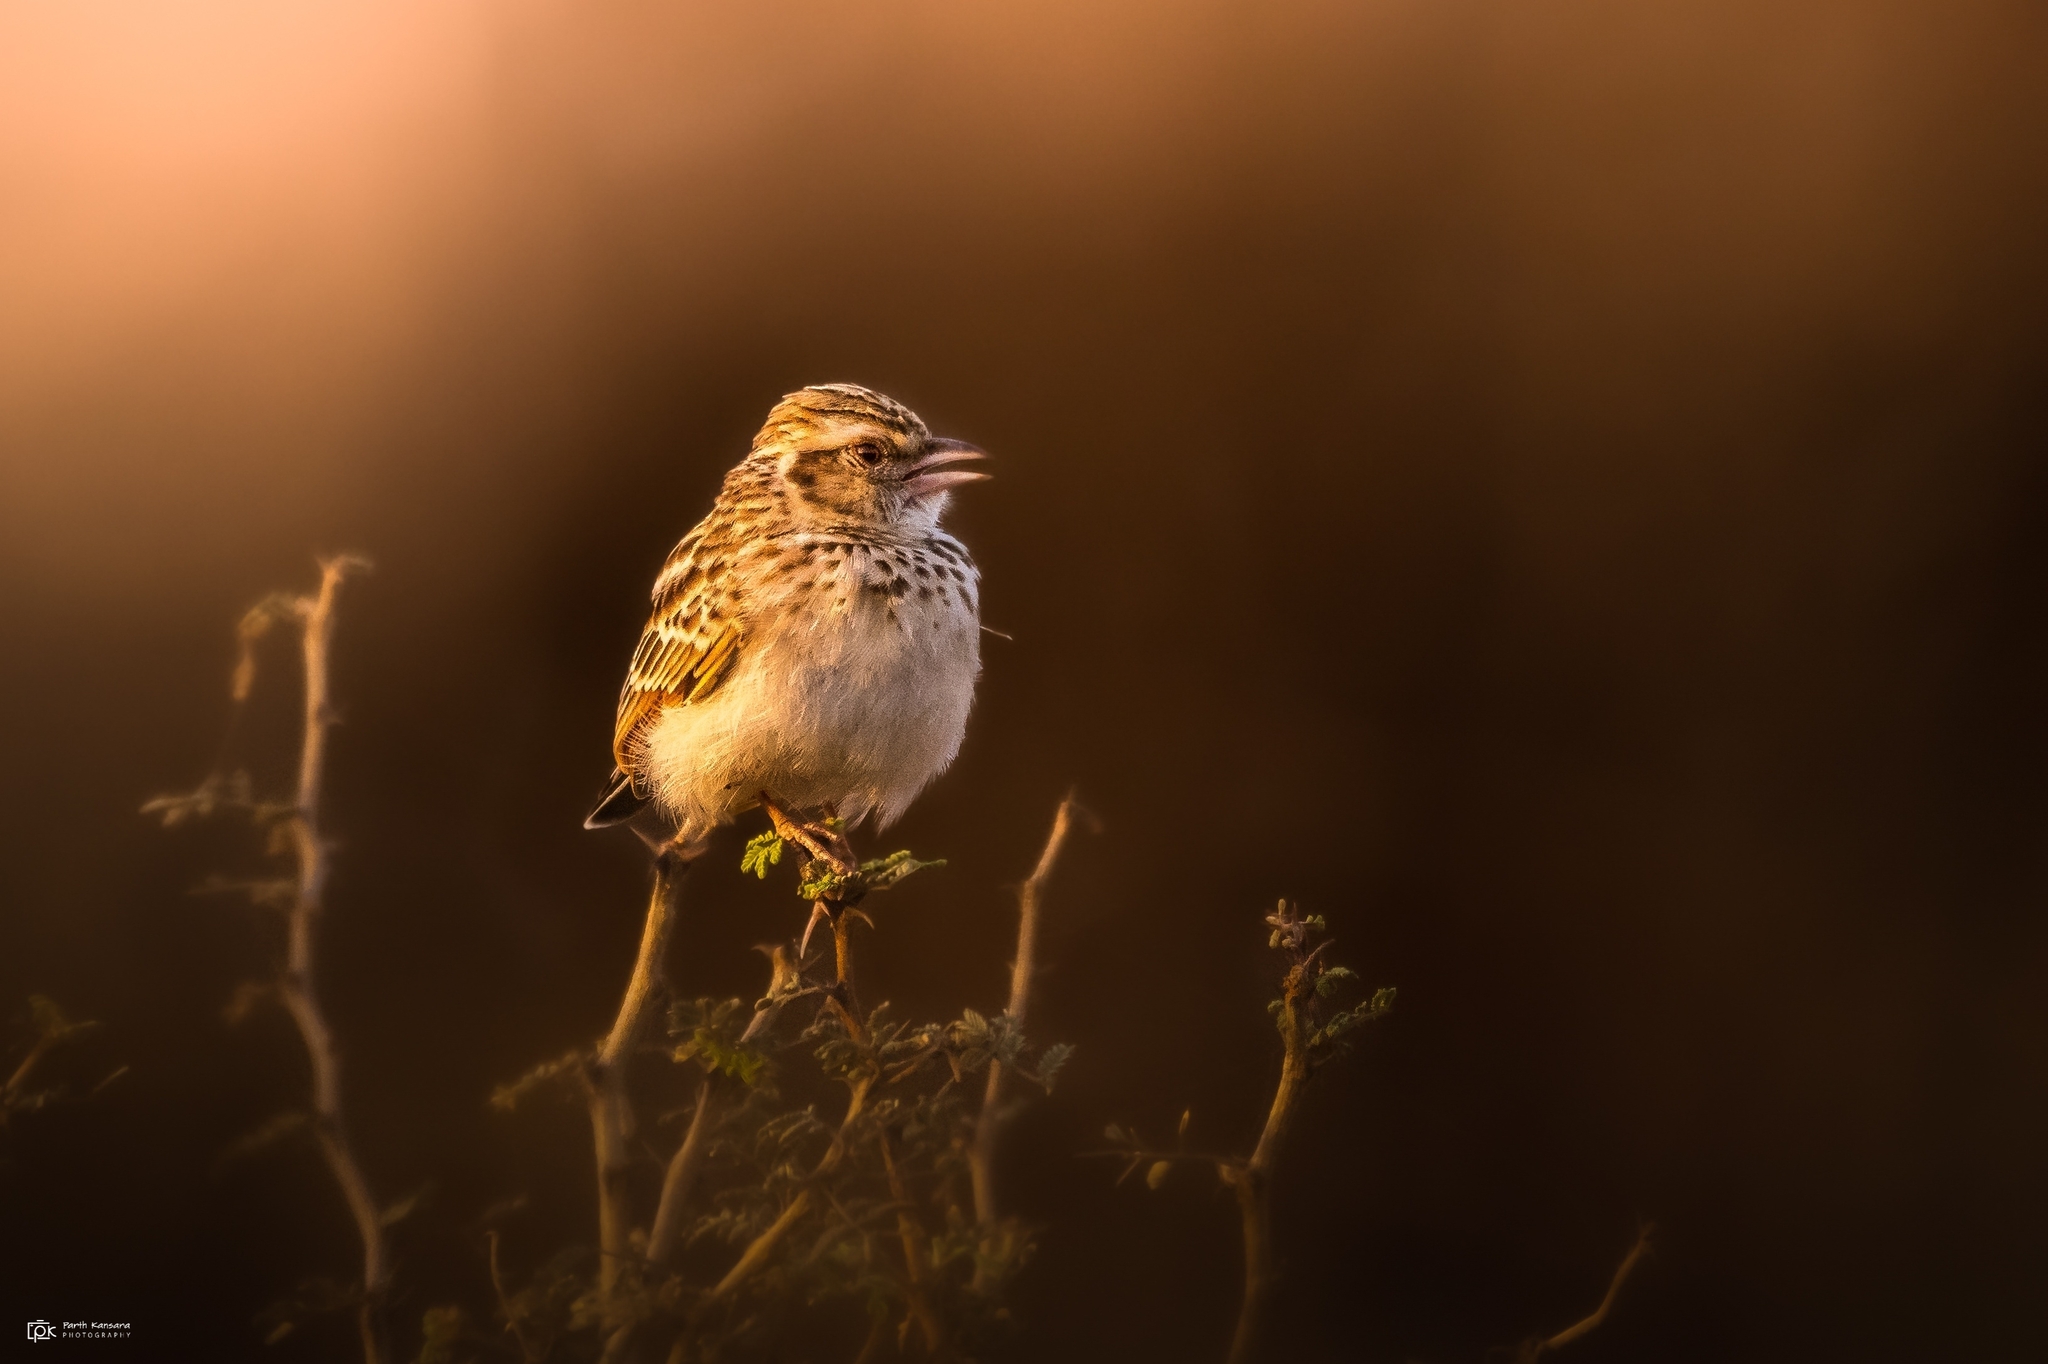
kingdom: Animalia
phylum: Chordata
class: Aves
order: Passeriformes
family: Alaudidae
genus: Mirafra
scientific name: Mirafra erythroptera
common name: Indian bush lark
